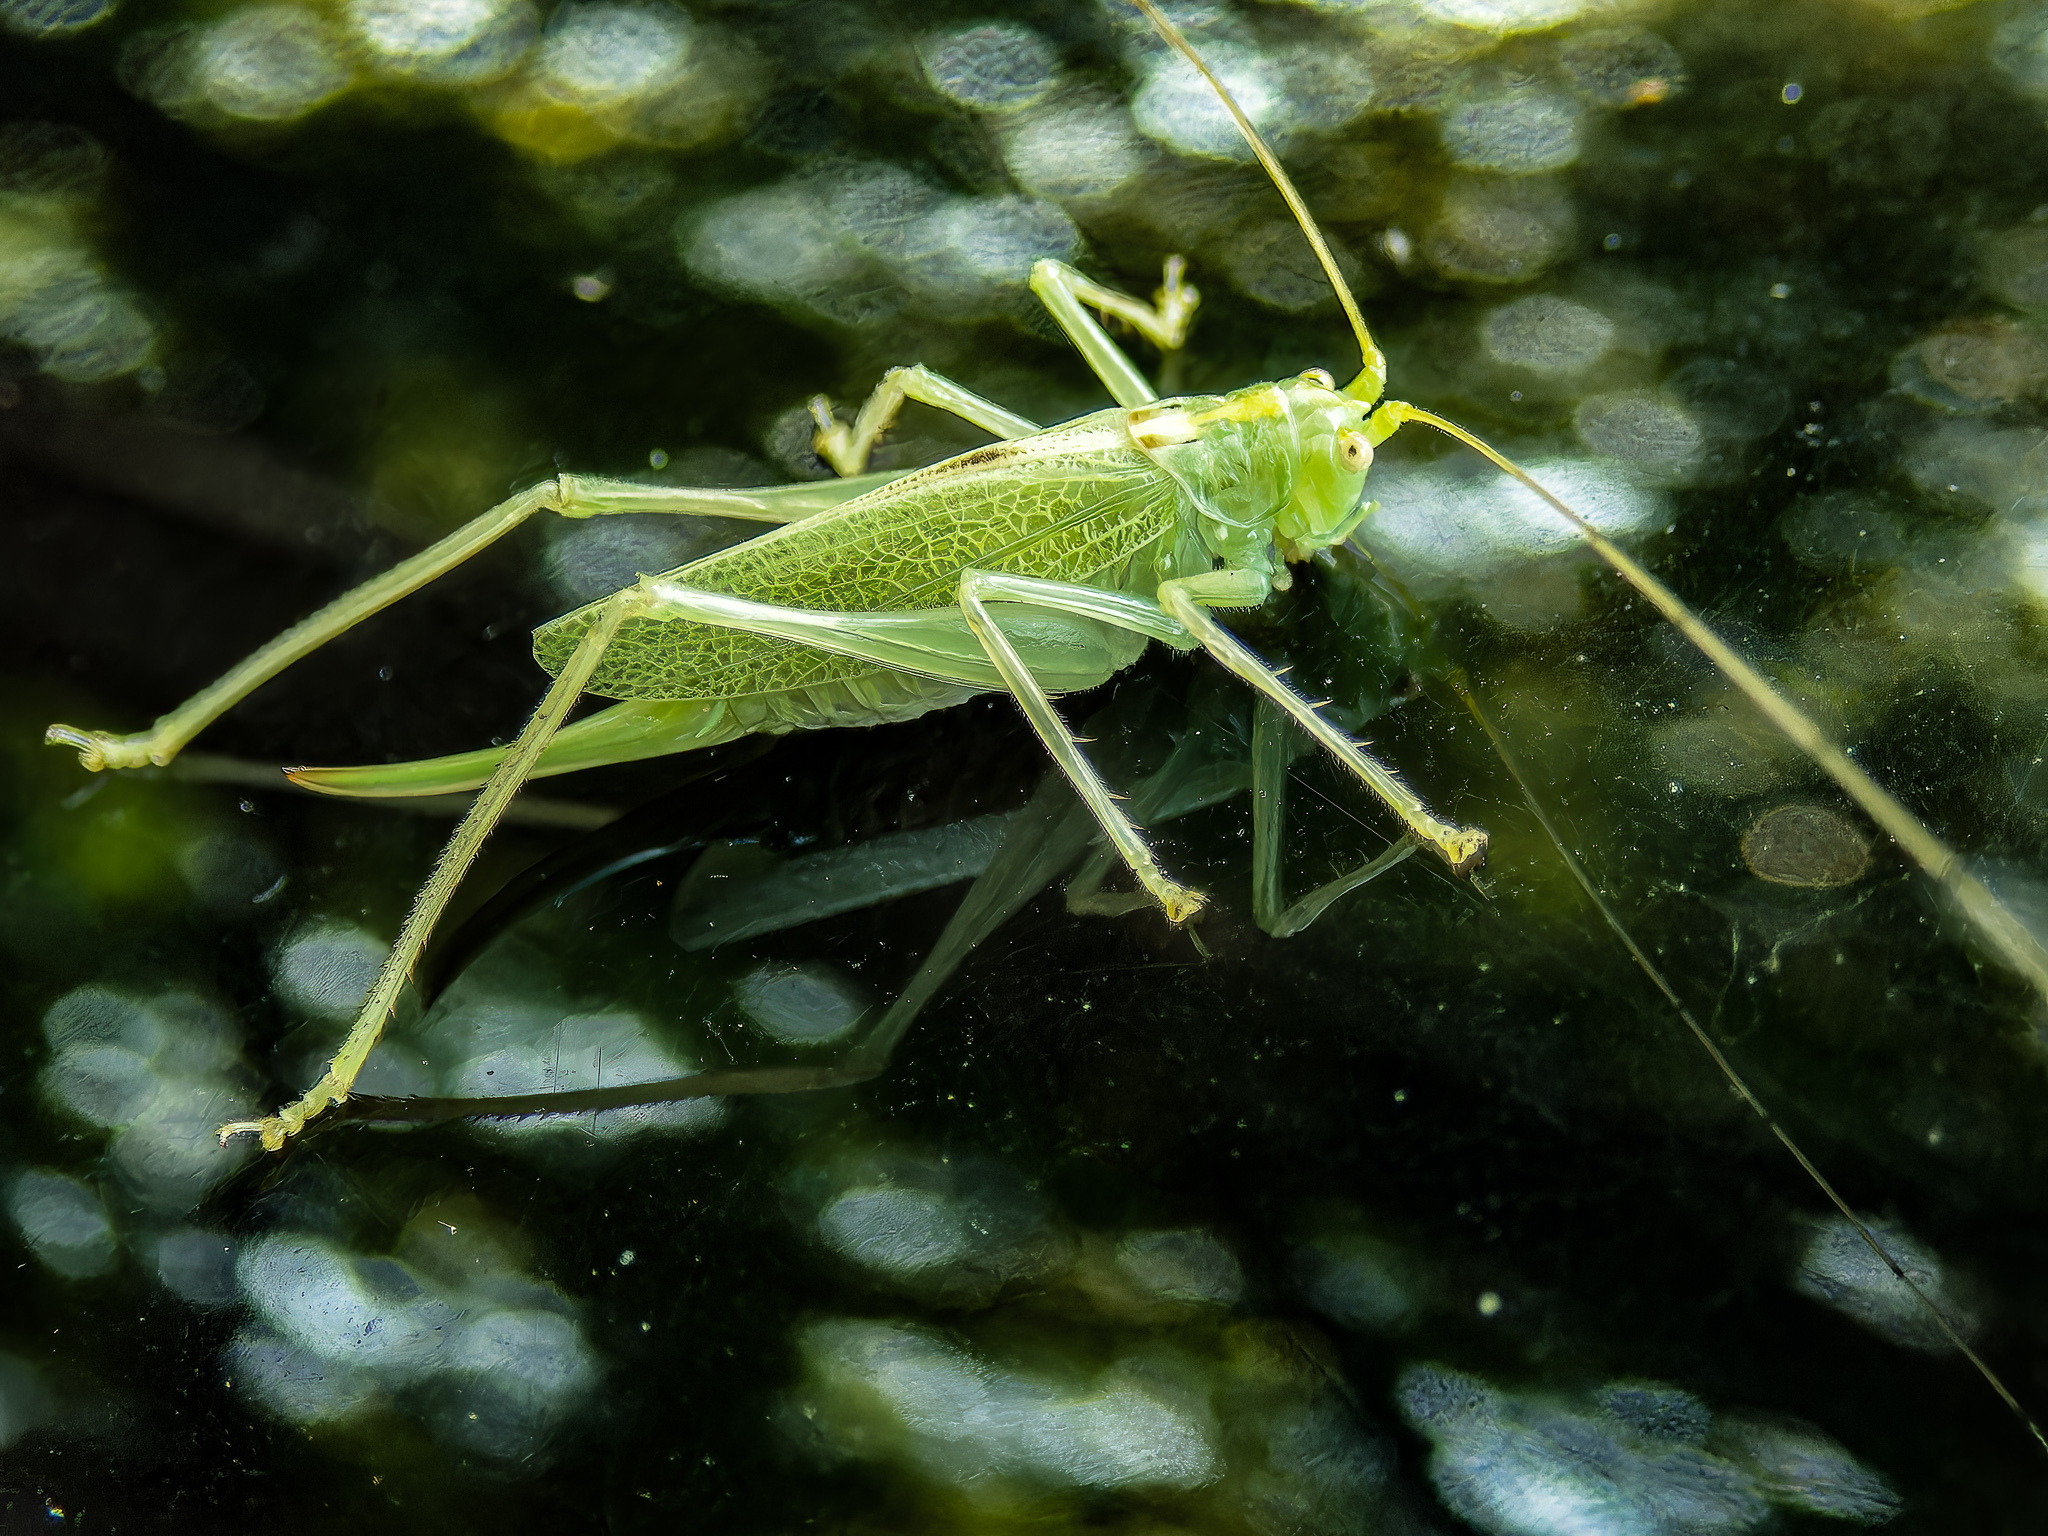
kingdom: Animalia
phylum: Arthropoda
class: Insecta
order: Orthoptera
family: Tettigoniidae
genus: Meconema
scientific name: Meconema thalassinum
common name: Oak bush-cricket
